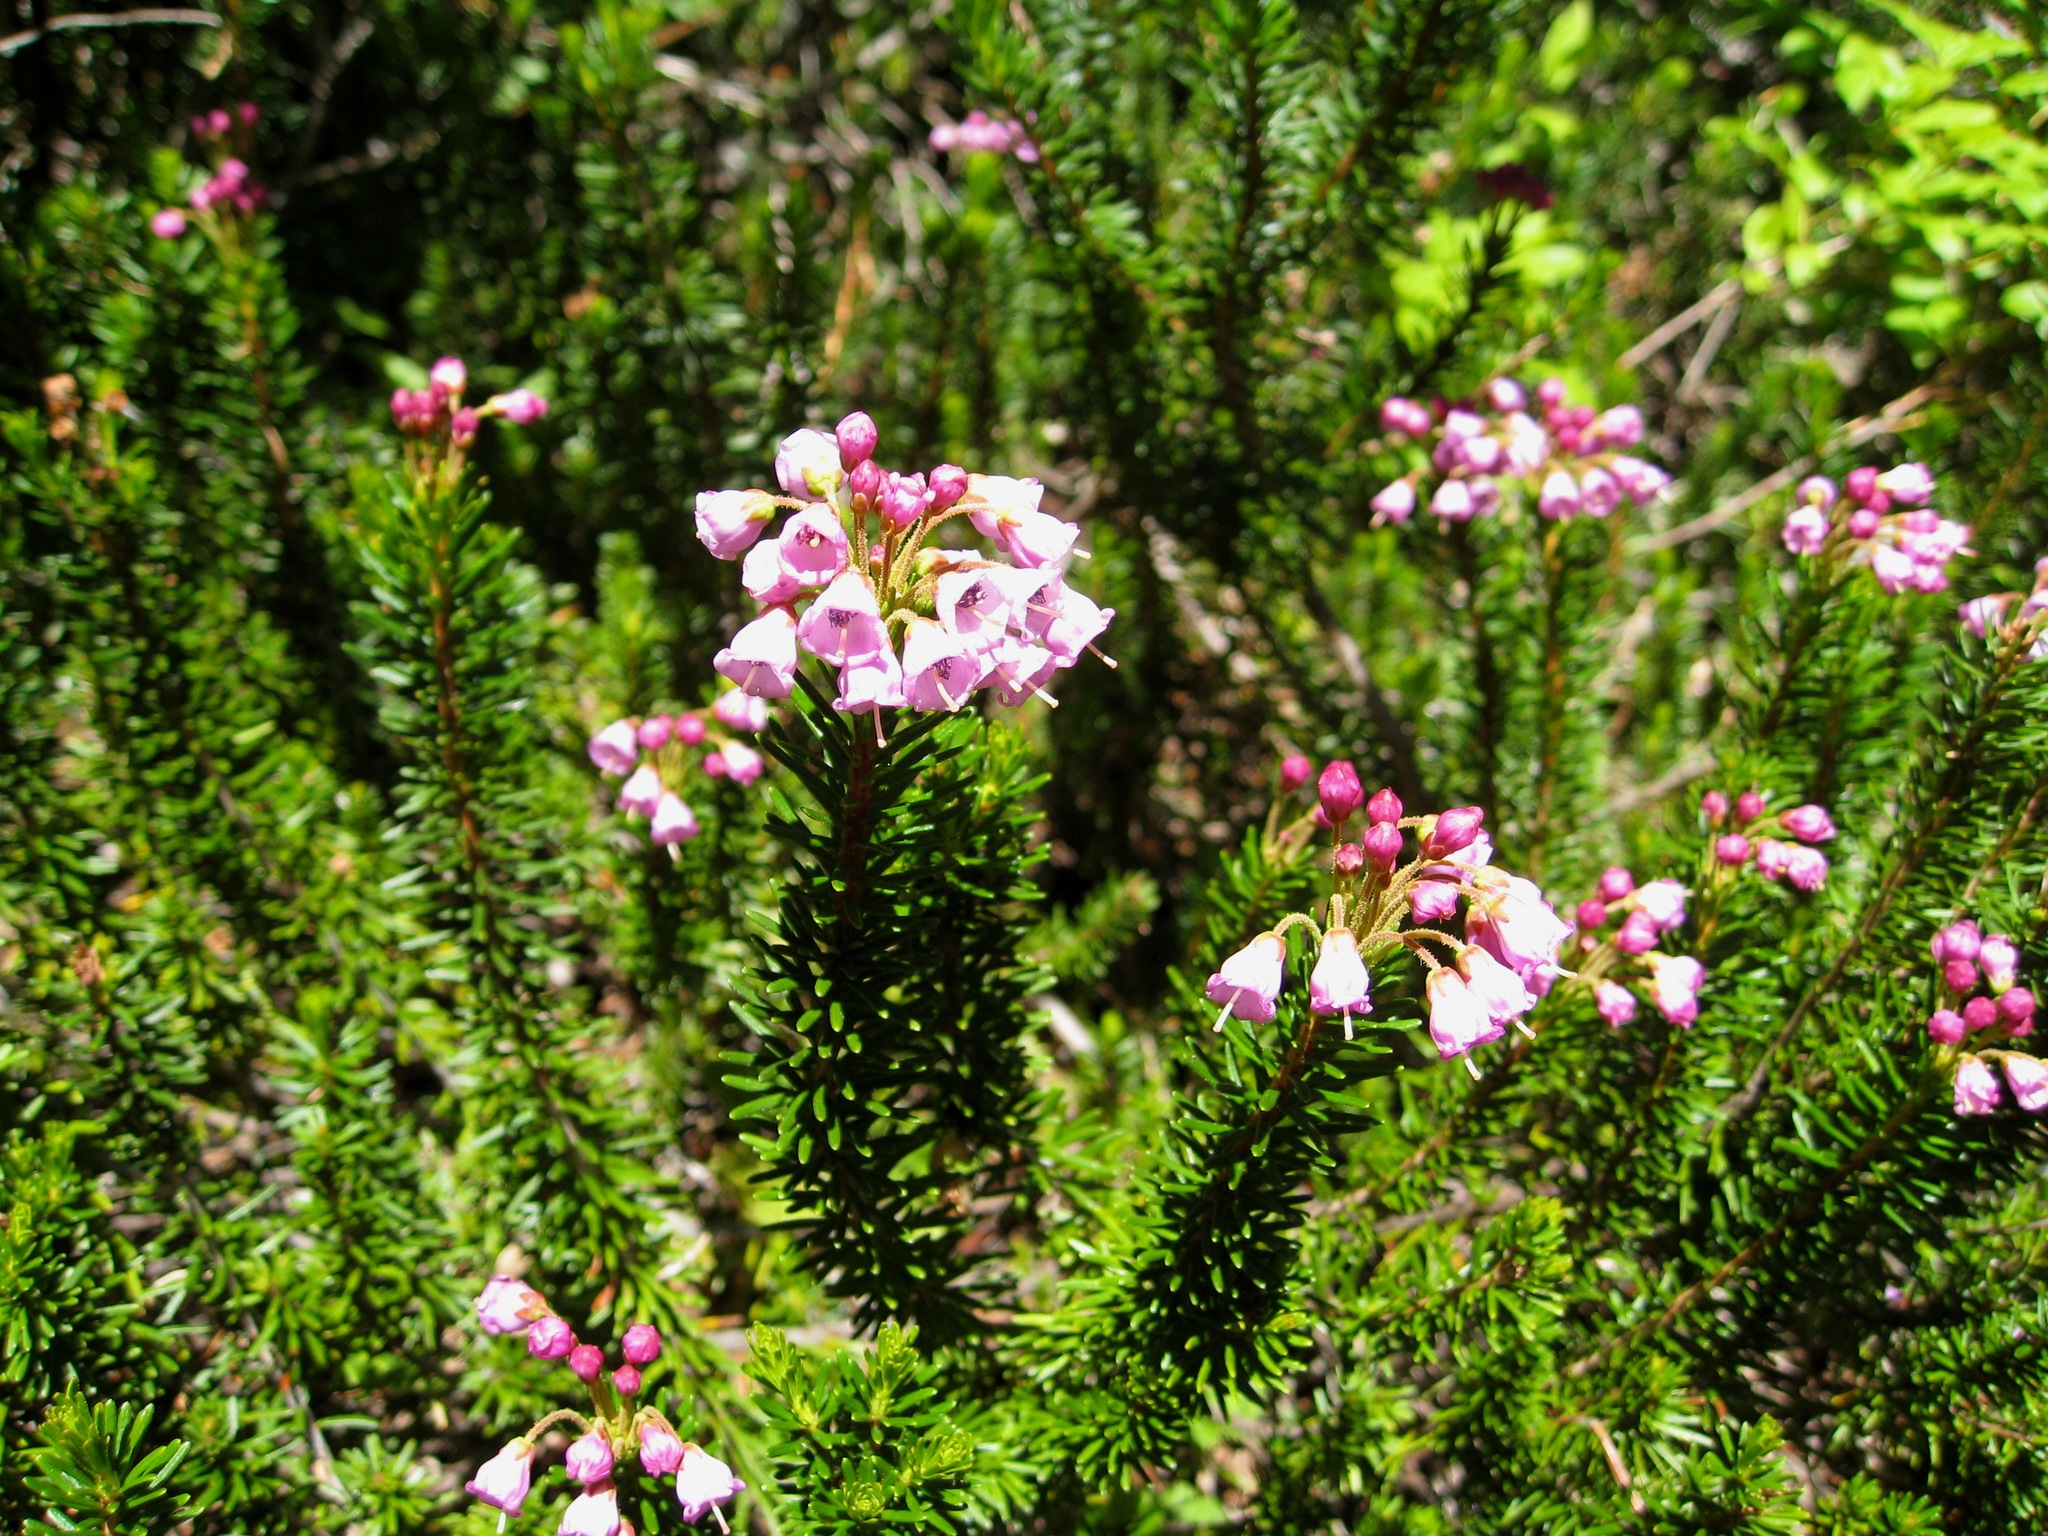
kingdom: Plantae
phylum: Tracheophyta
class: Magnoliopsida
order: Ericales
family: Ericaceae
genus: Phyllodoce
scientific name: Phyllodoce empetriformis
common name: Pink mountain heather
